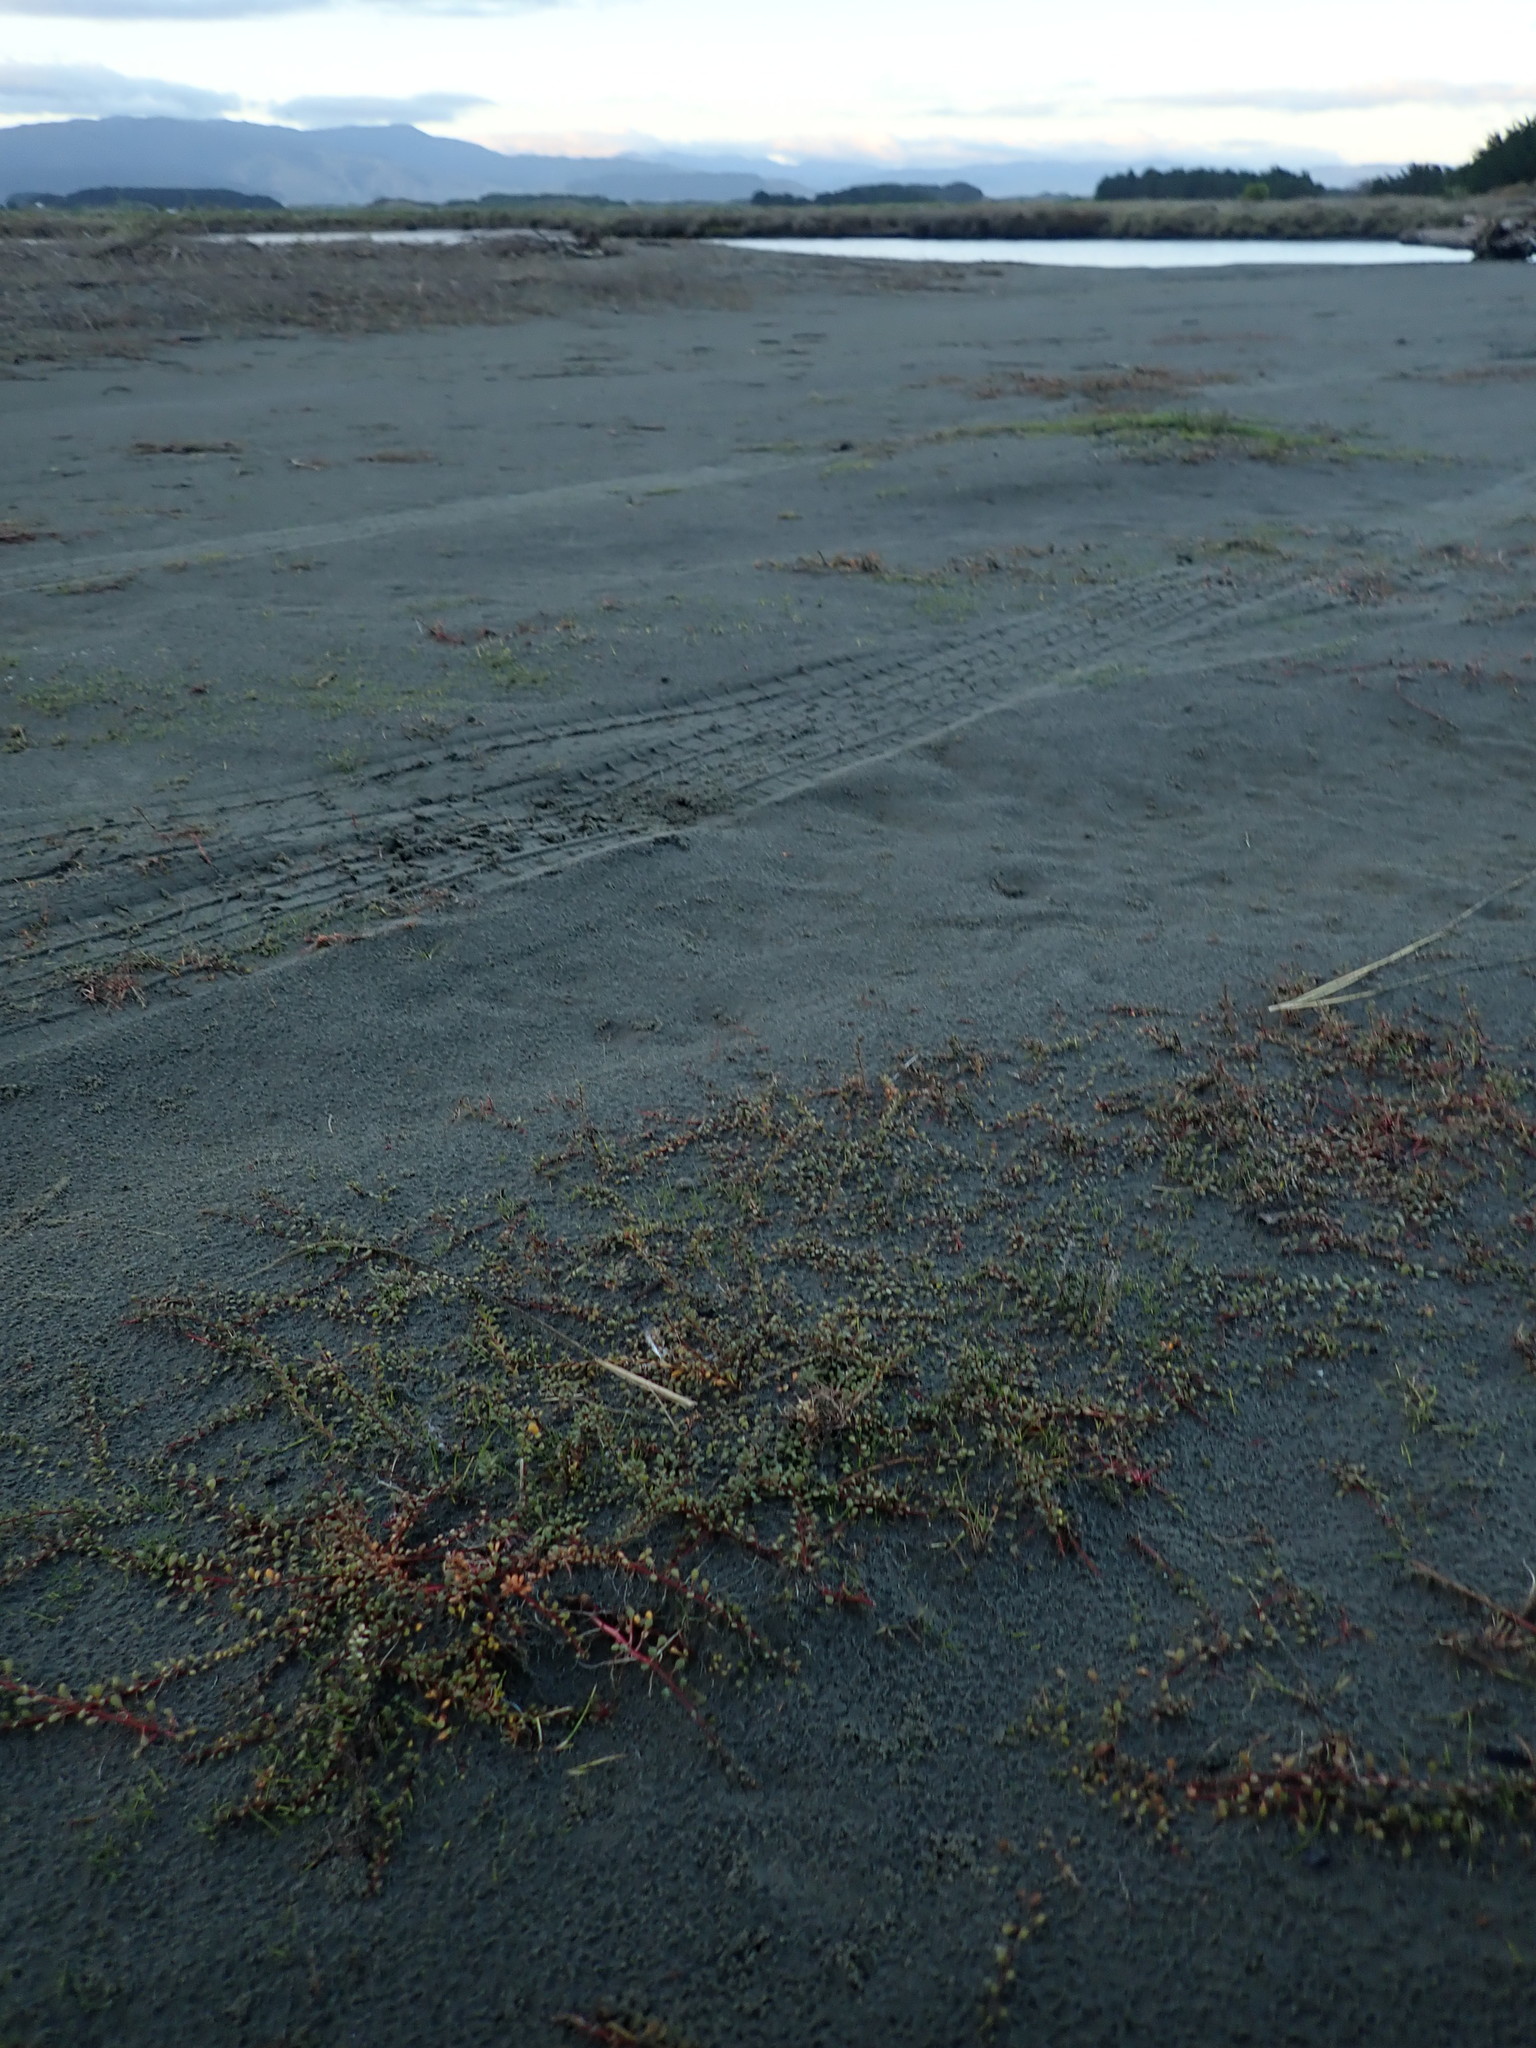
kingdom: Plantae
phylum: Tracheophyta
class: Magnoliopsida
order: Ericales
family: Primulaceae
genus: Samolus
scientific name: Samolus repens
